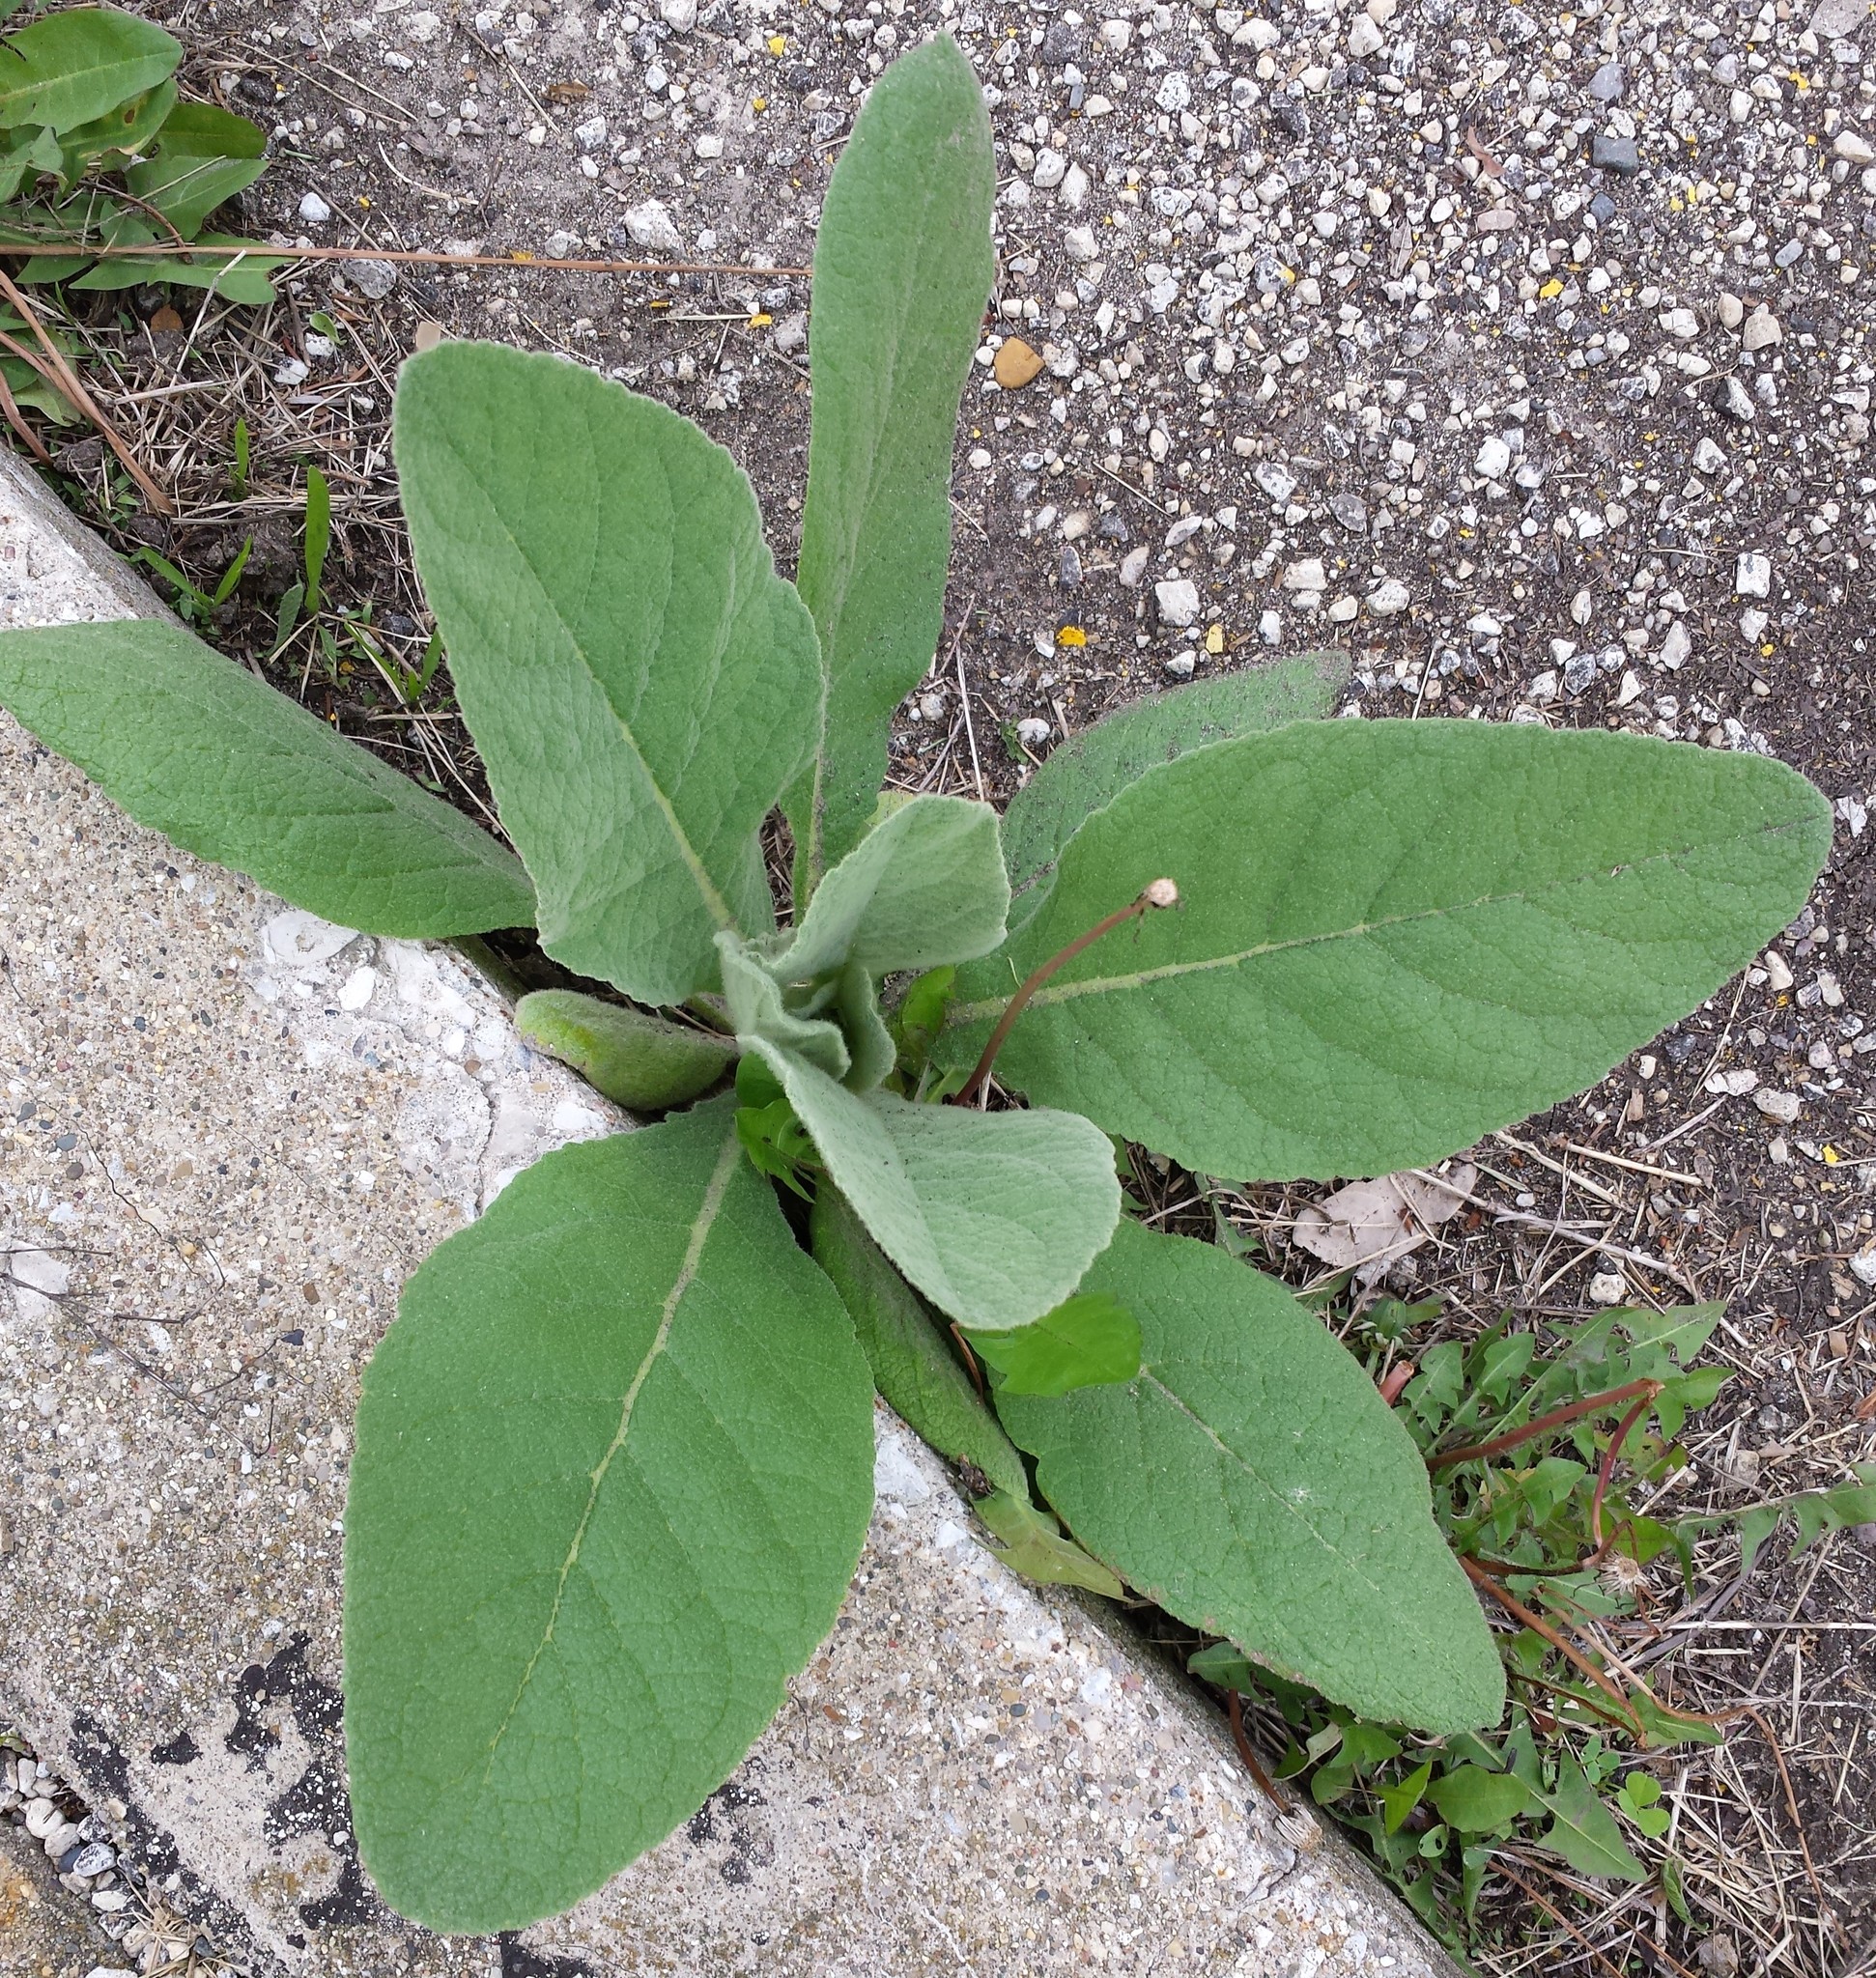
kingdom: Plantae
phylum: Tracheophyta
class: Magnoliopsida
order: Lamiales
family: Scrophulariaceae
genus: Verbascum
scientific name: Verbascum thapsus
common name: Common mullein
